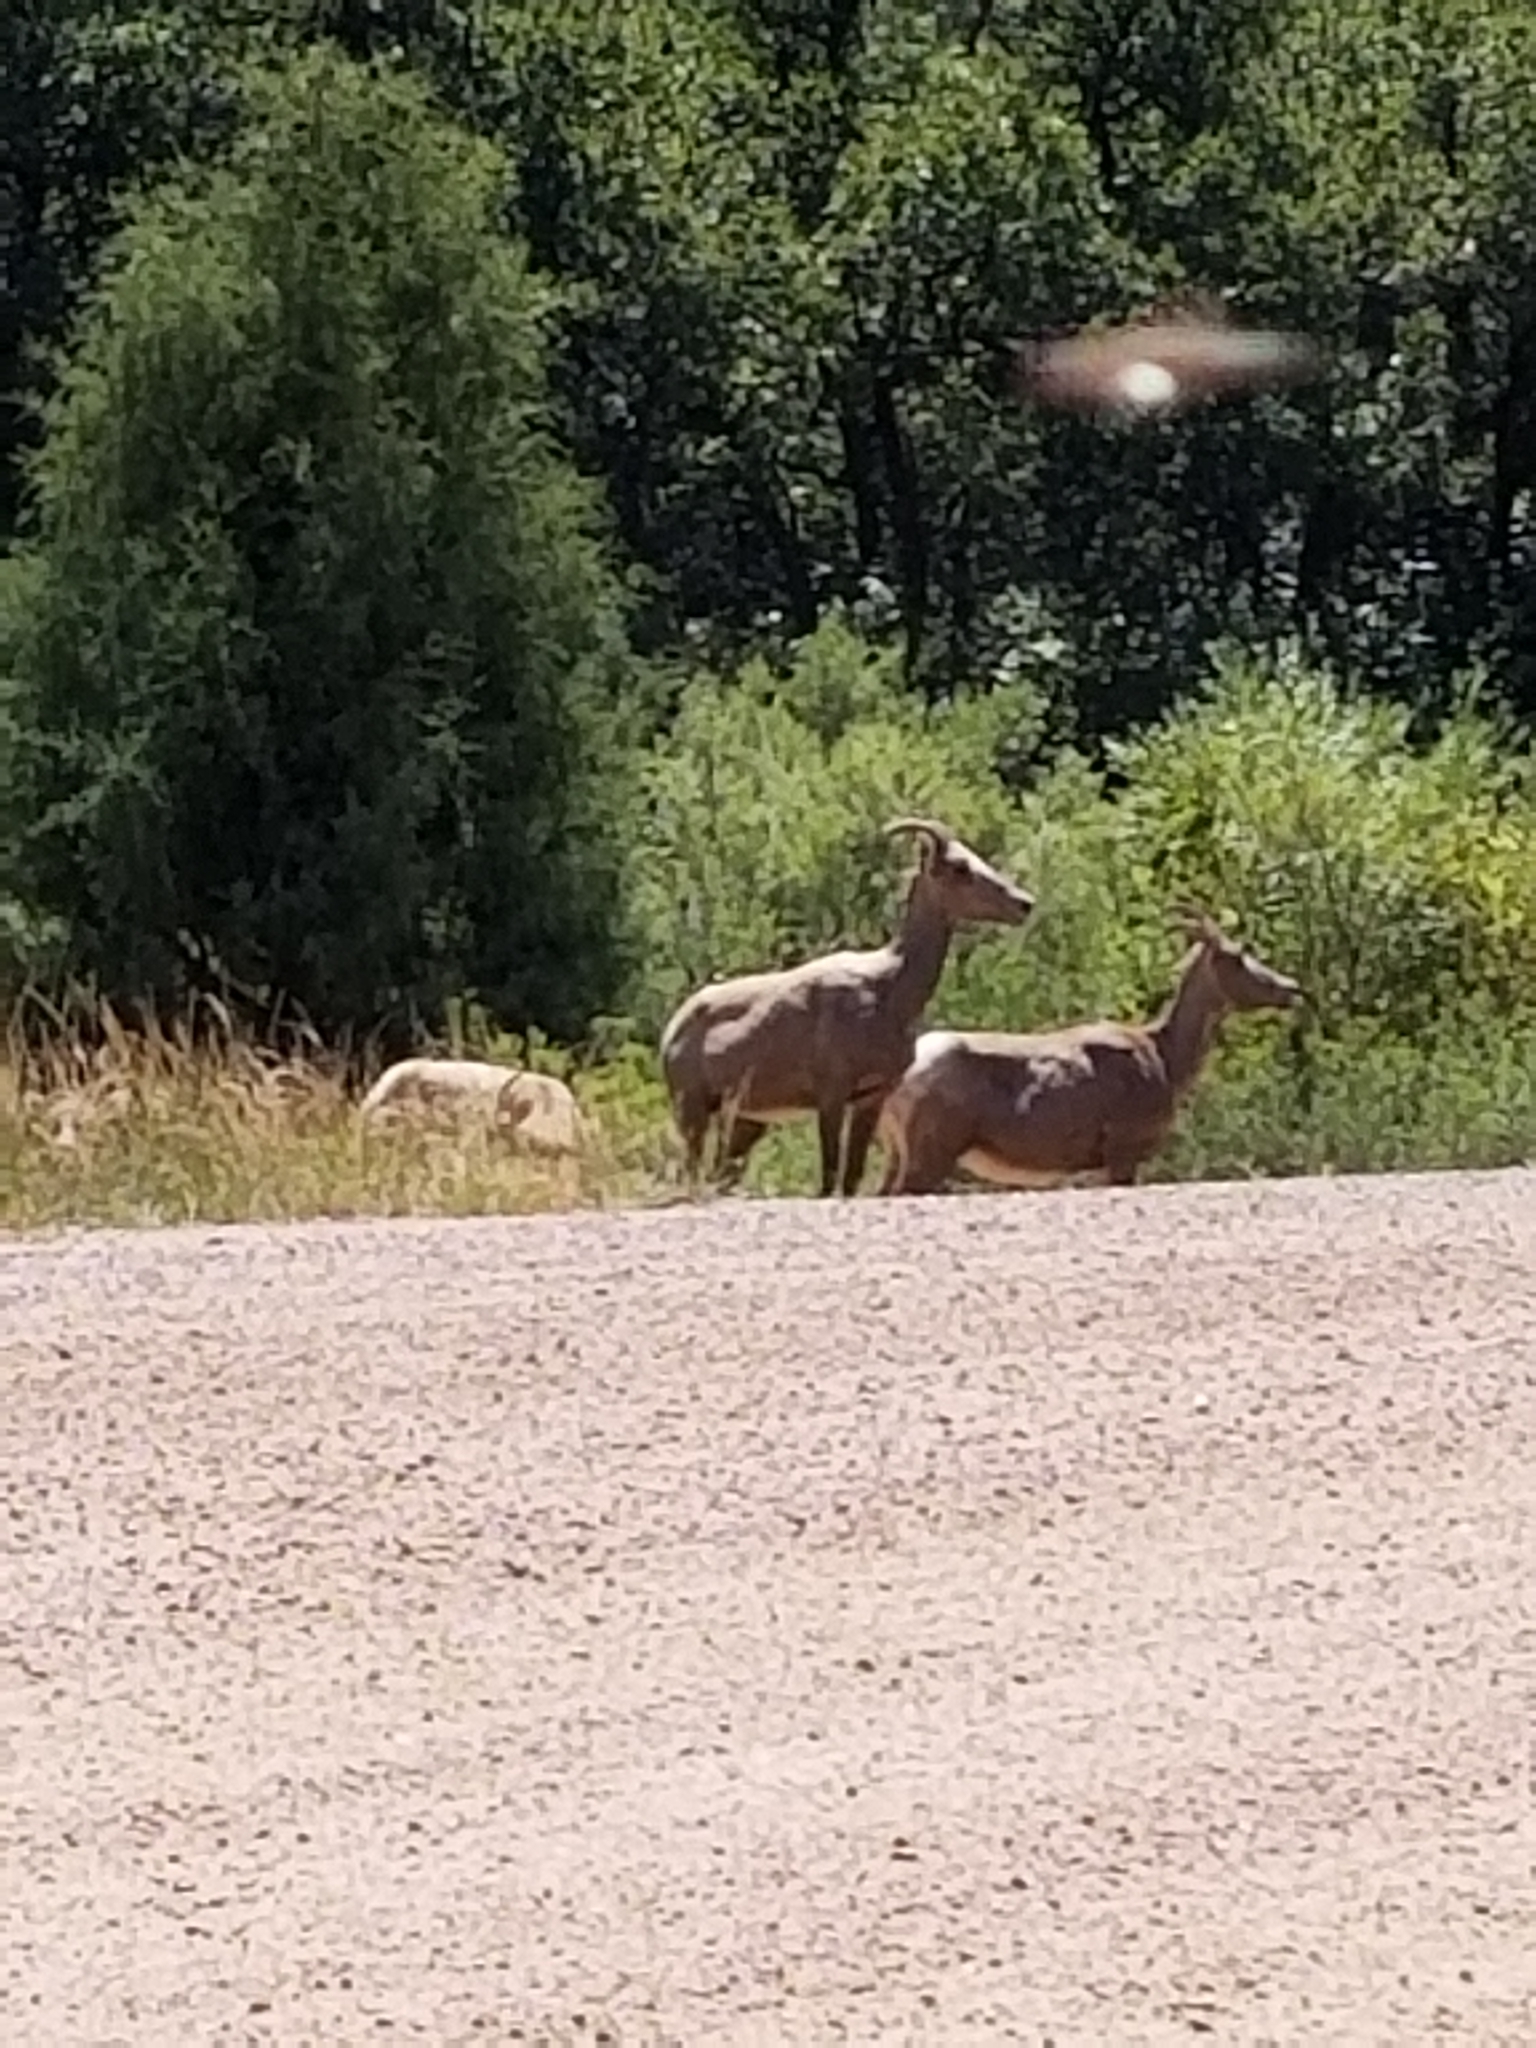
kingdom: Animalia
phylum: Chordata
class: Mammalia
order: Artiodactyla
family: Bovidae
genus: Ovis
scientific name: Ovis canadensis
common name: Bighorn sheep
